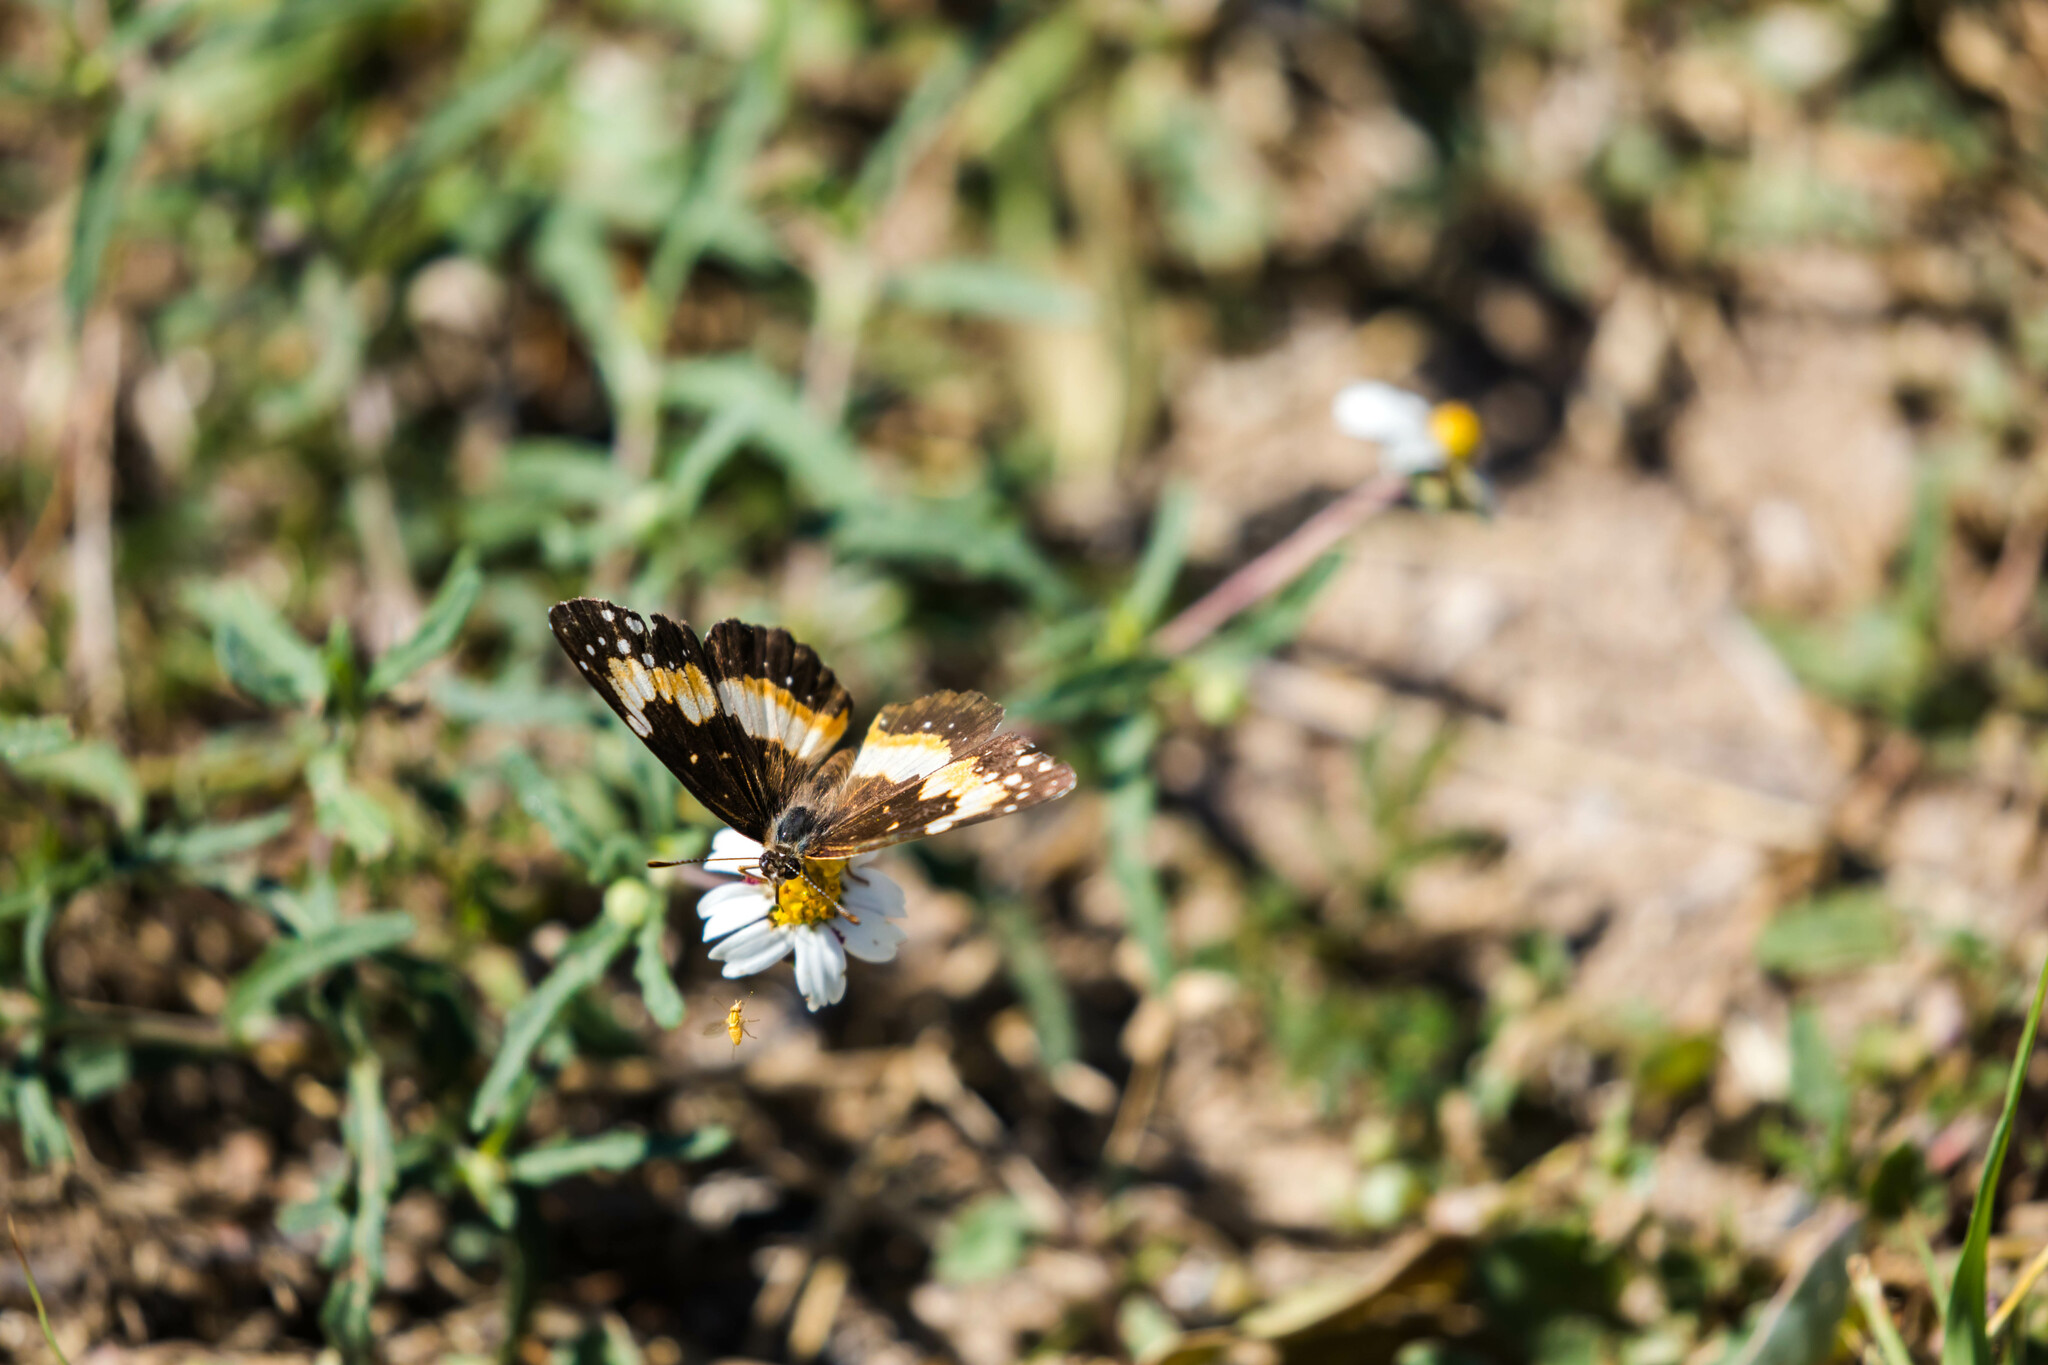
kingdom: Animalia
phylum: Arthropoda
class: Insecta
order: Lepidoptera
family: Nymphalidae
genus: Chlosyne
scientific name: Chlosyne lacinia
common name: Bordered patch
